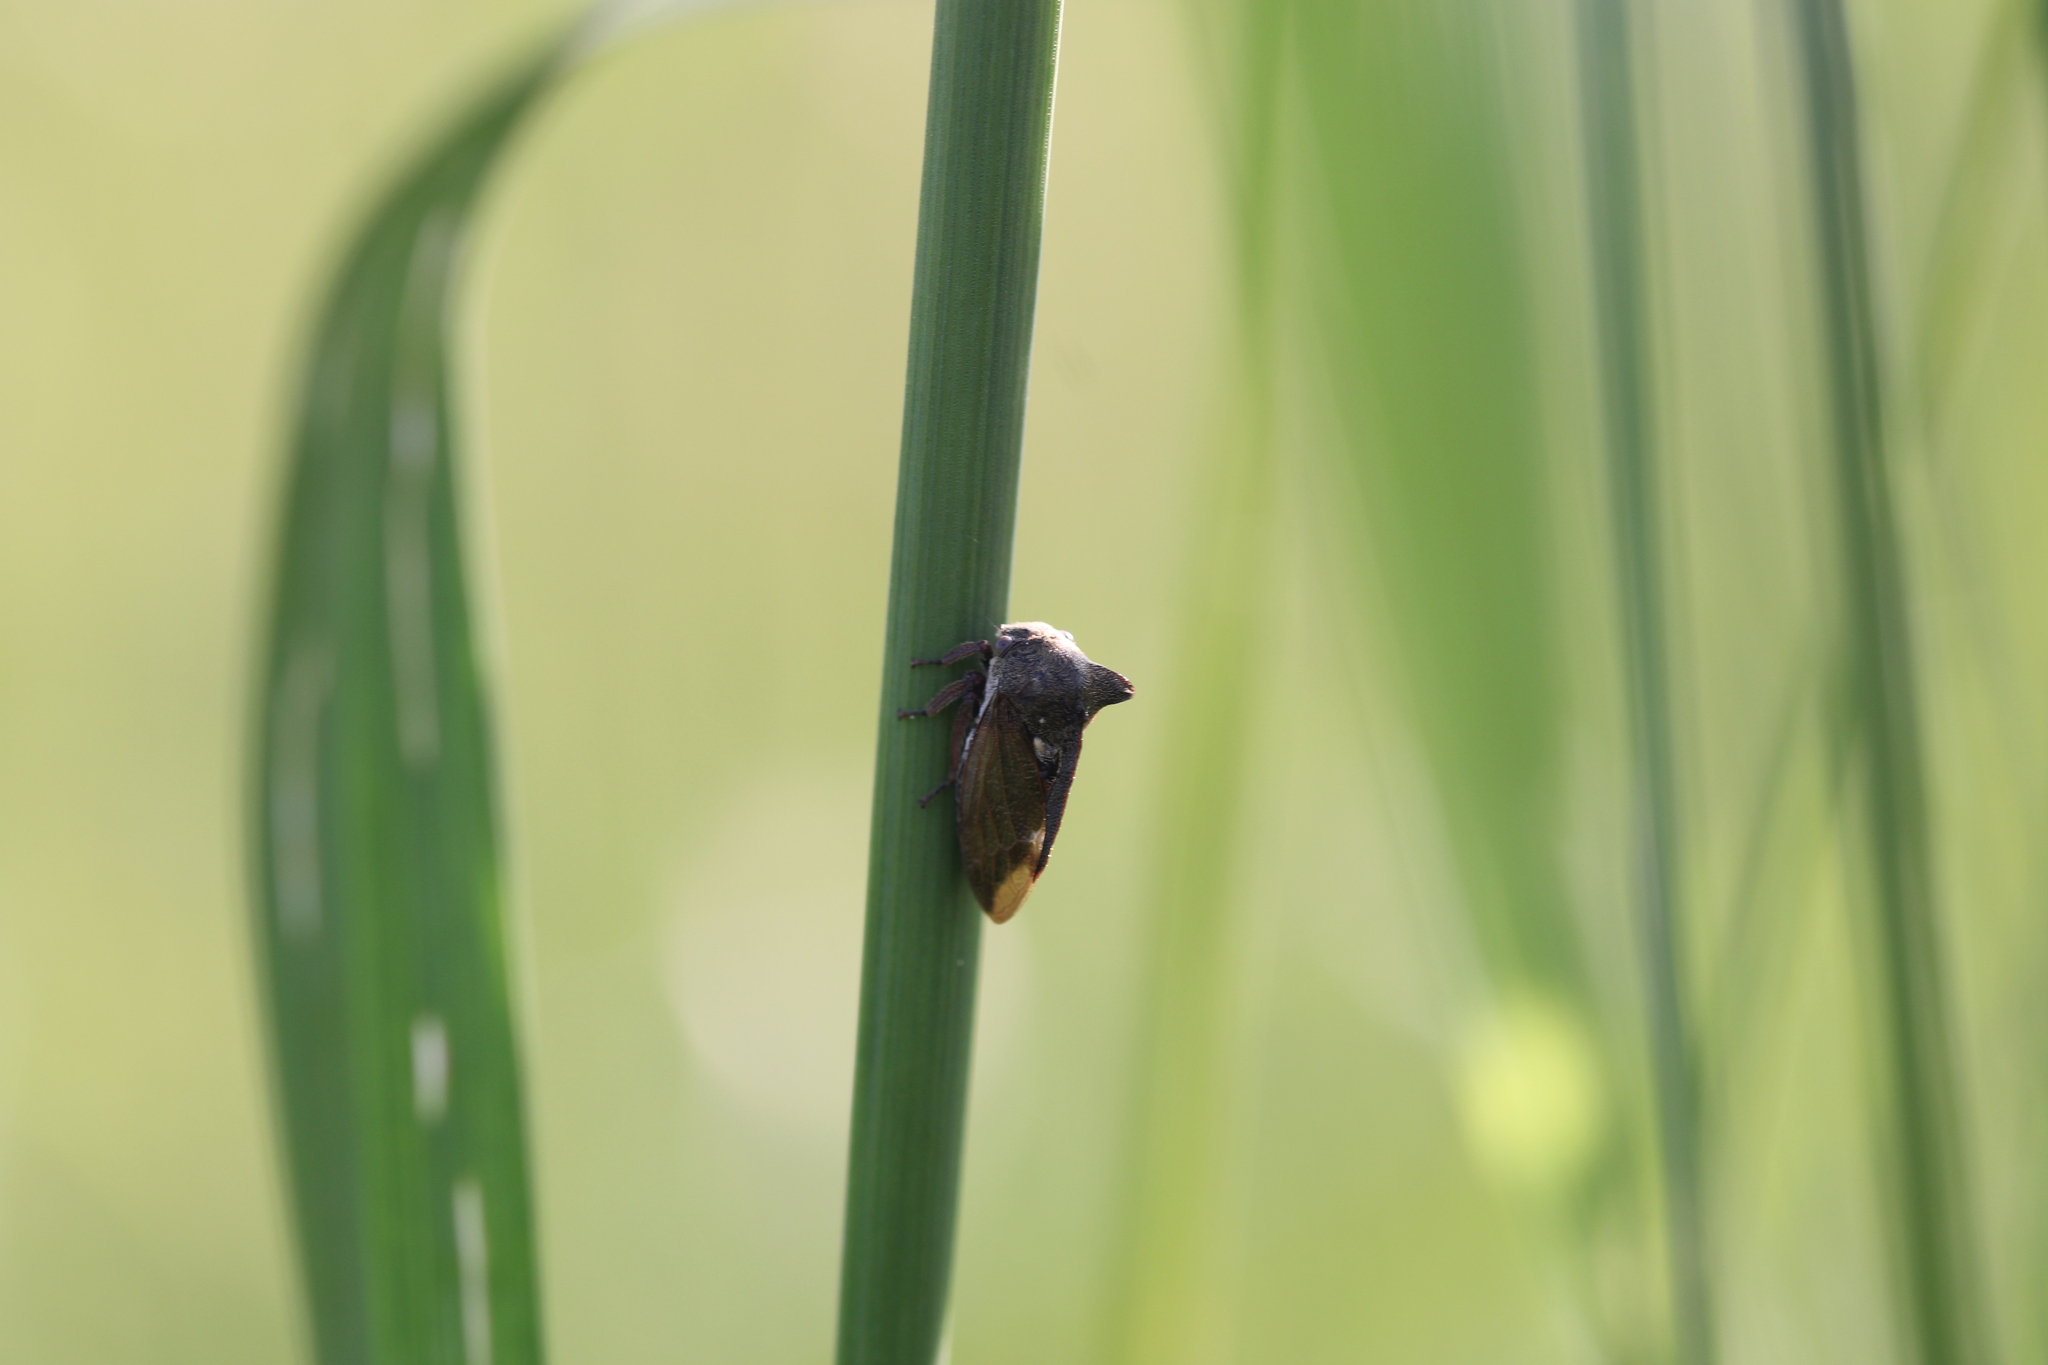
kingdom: Animalia
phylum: Arthropoda
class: Insecta
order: Hemiptera
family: Membracidae
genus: Centrotus
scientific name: Centrotus cornuta
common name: Treehopper
